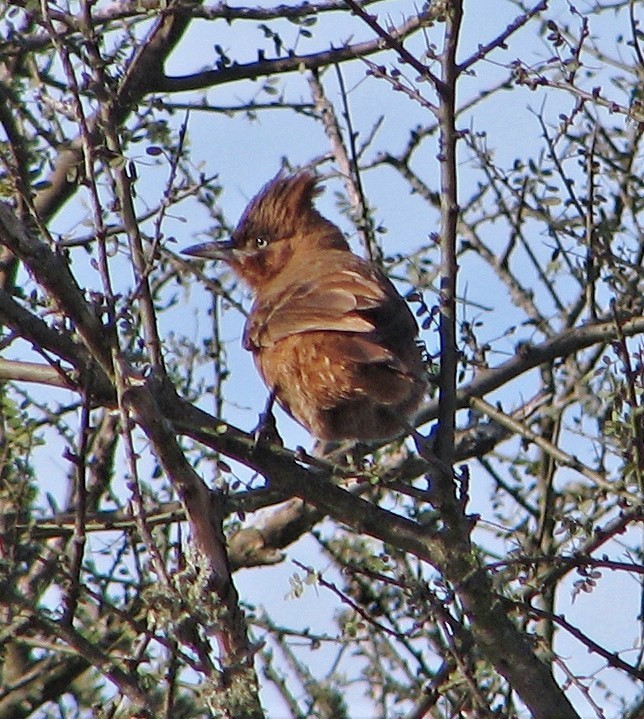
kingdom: Animalia
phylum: Chordata
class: Aves
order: Passeriformes
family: Furnariidae
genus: Pseudoseisura
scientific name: Pseudoseisura lophotes
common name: Brown cacholote
